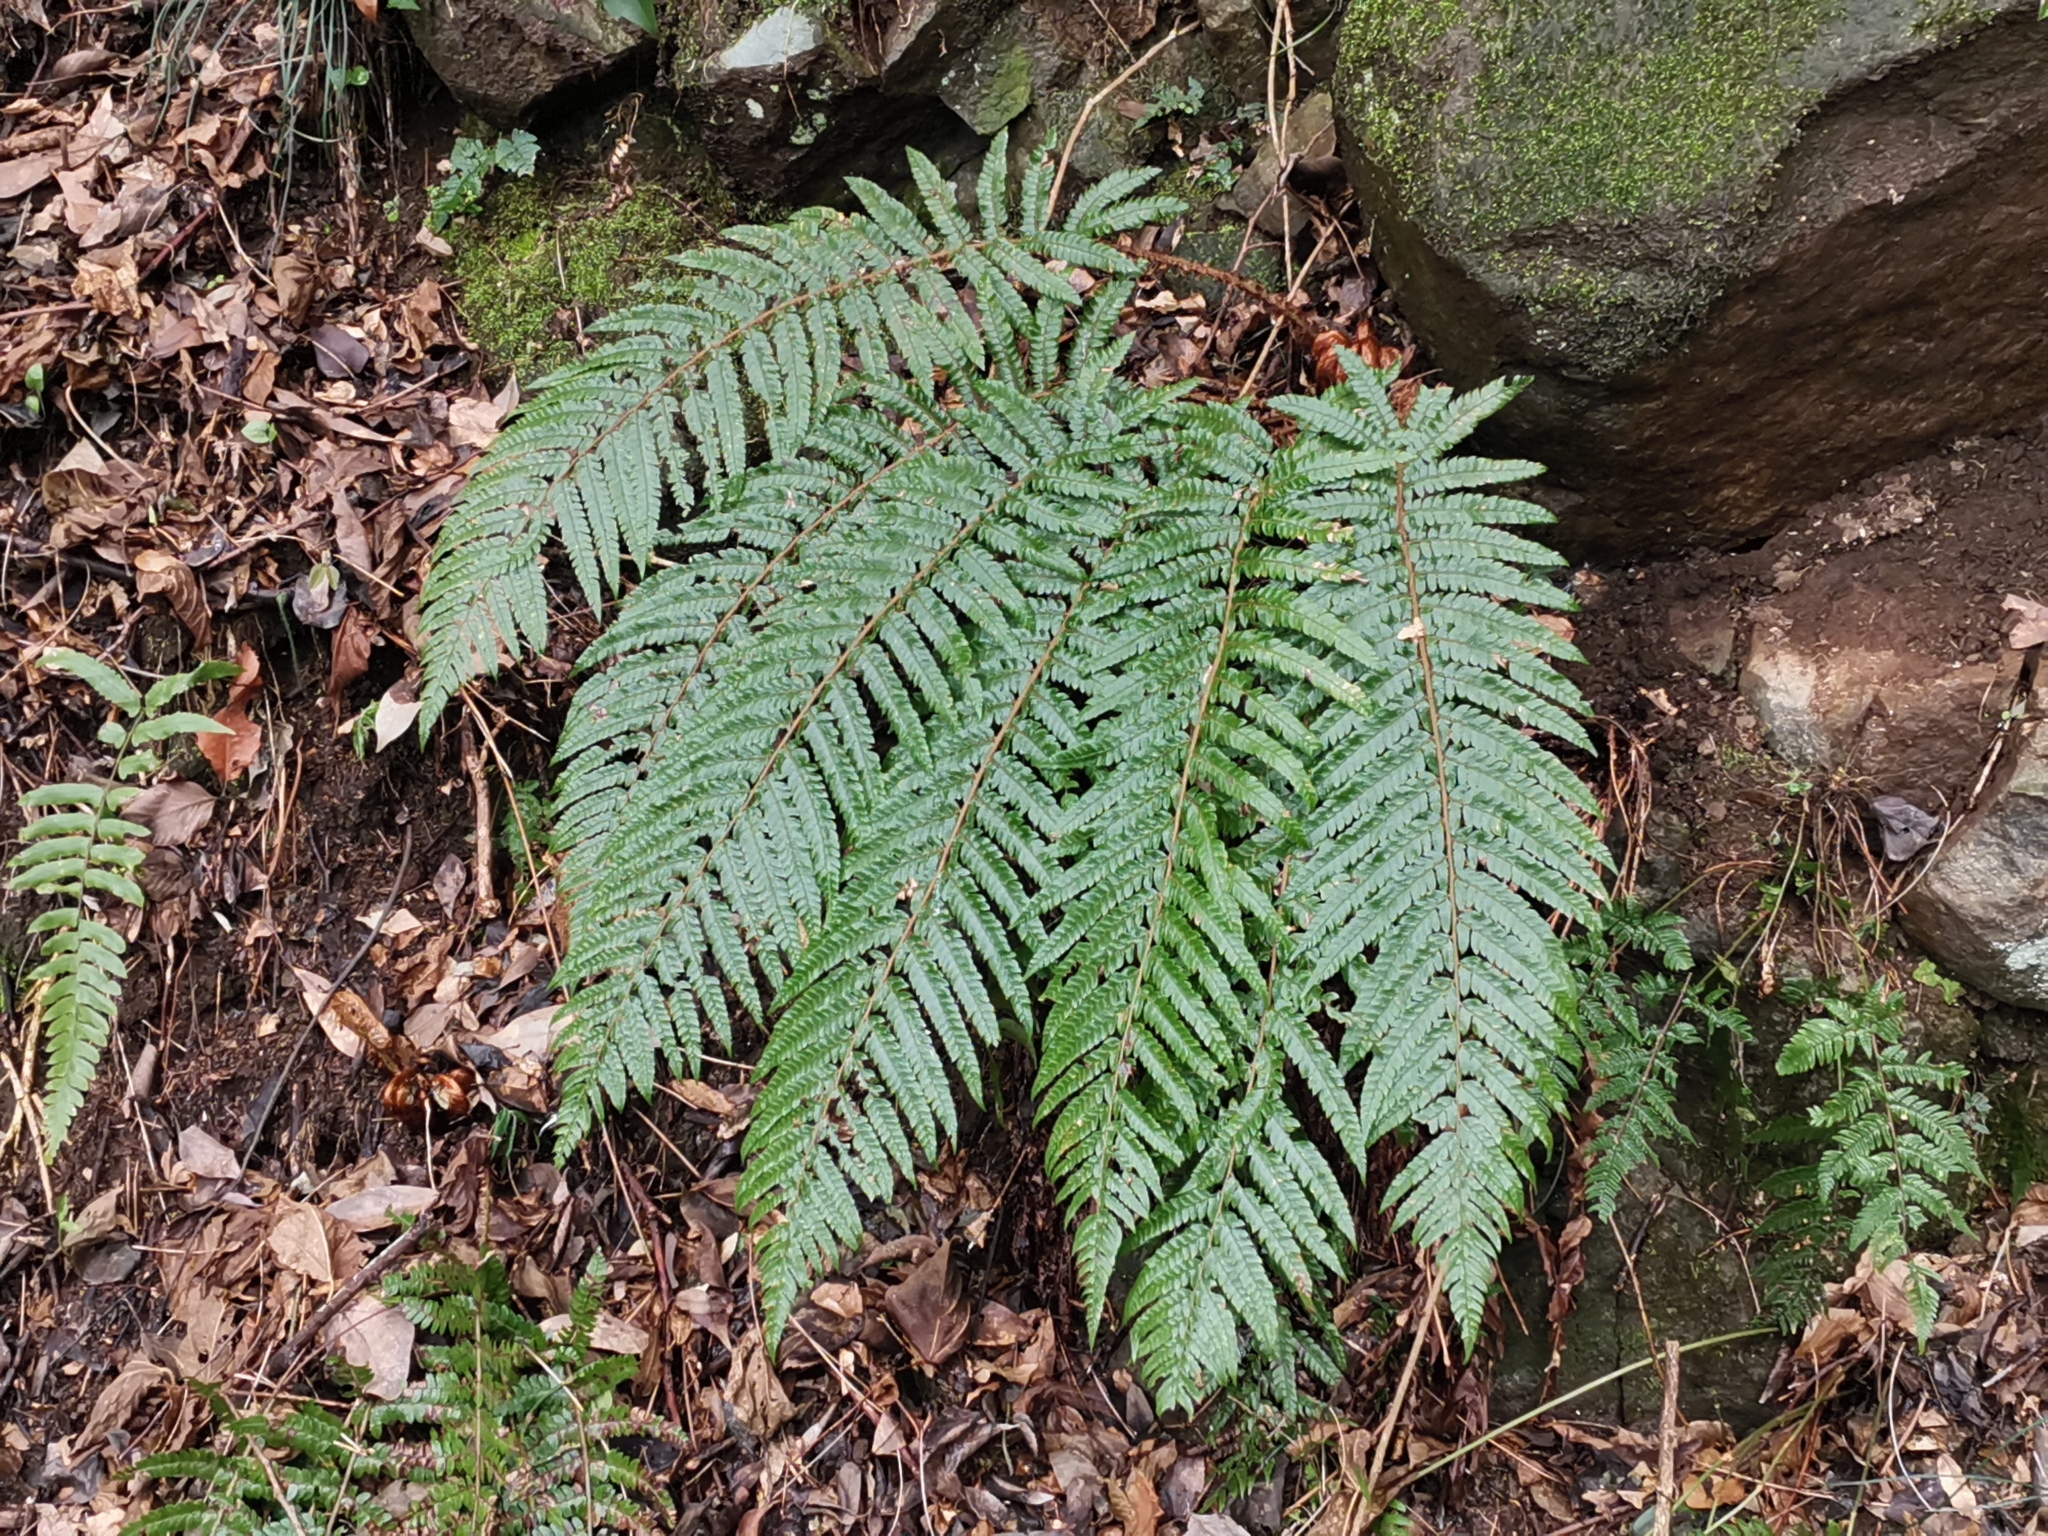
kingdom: Plantae
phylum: Tracheophyta
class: Polypodiopsida
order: Polypodiales
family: Dryopteridaceae
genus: Polystichum
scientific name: Polystichum luctuosum
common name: Korean rockfern
